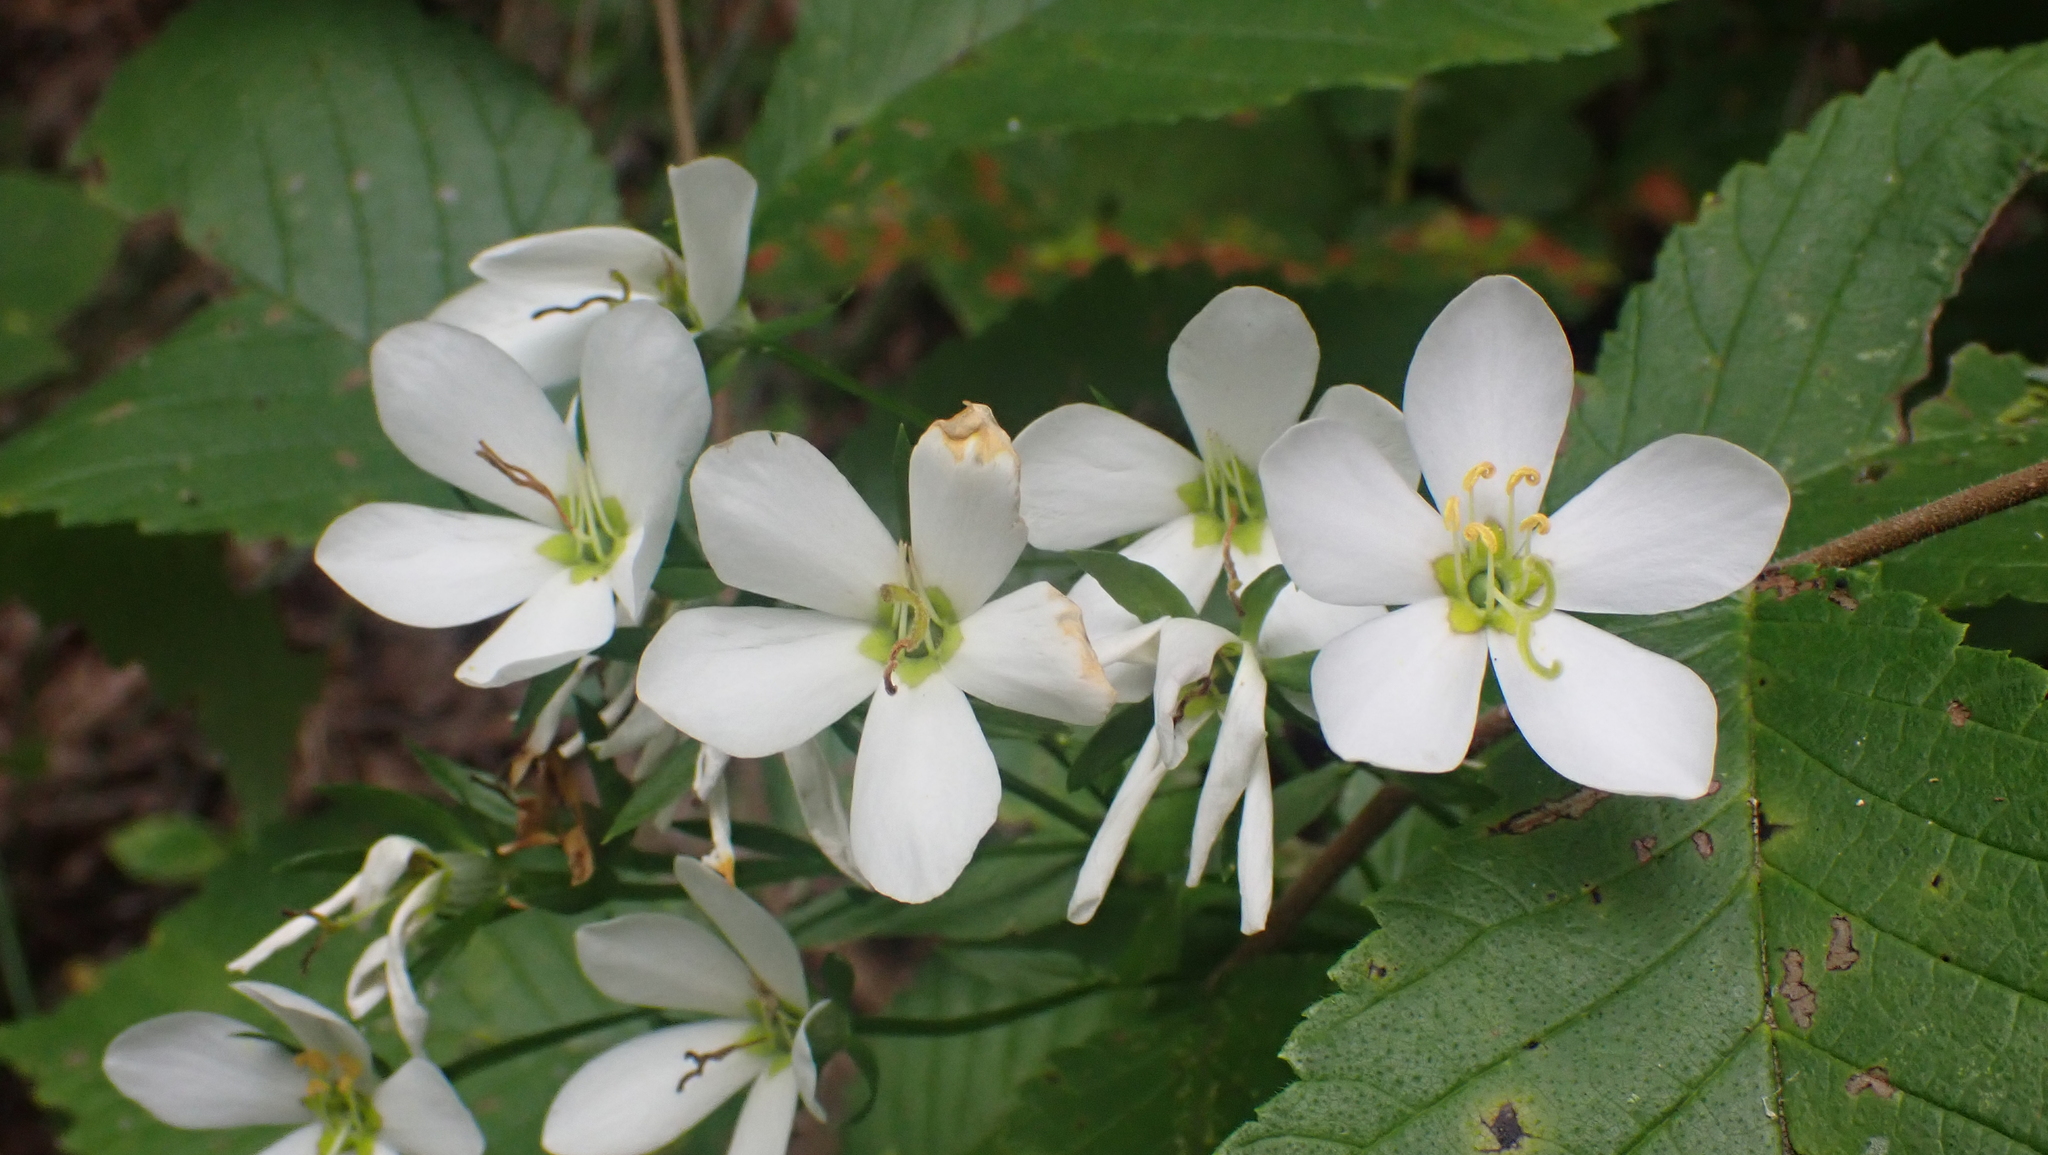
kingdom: Plantae
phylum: Tracheophyta
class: Magnoliopsida
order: Gentianales
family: Gentianaceae
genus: Sabatia
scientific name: Sabatia angularis
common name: Rose-pink
